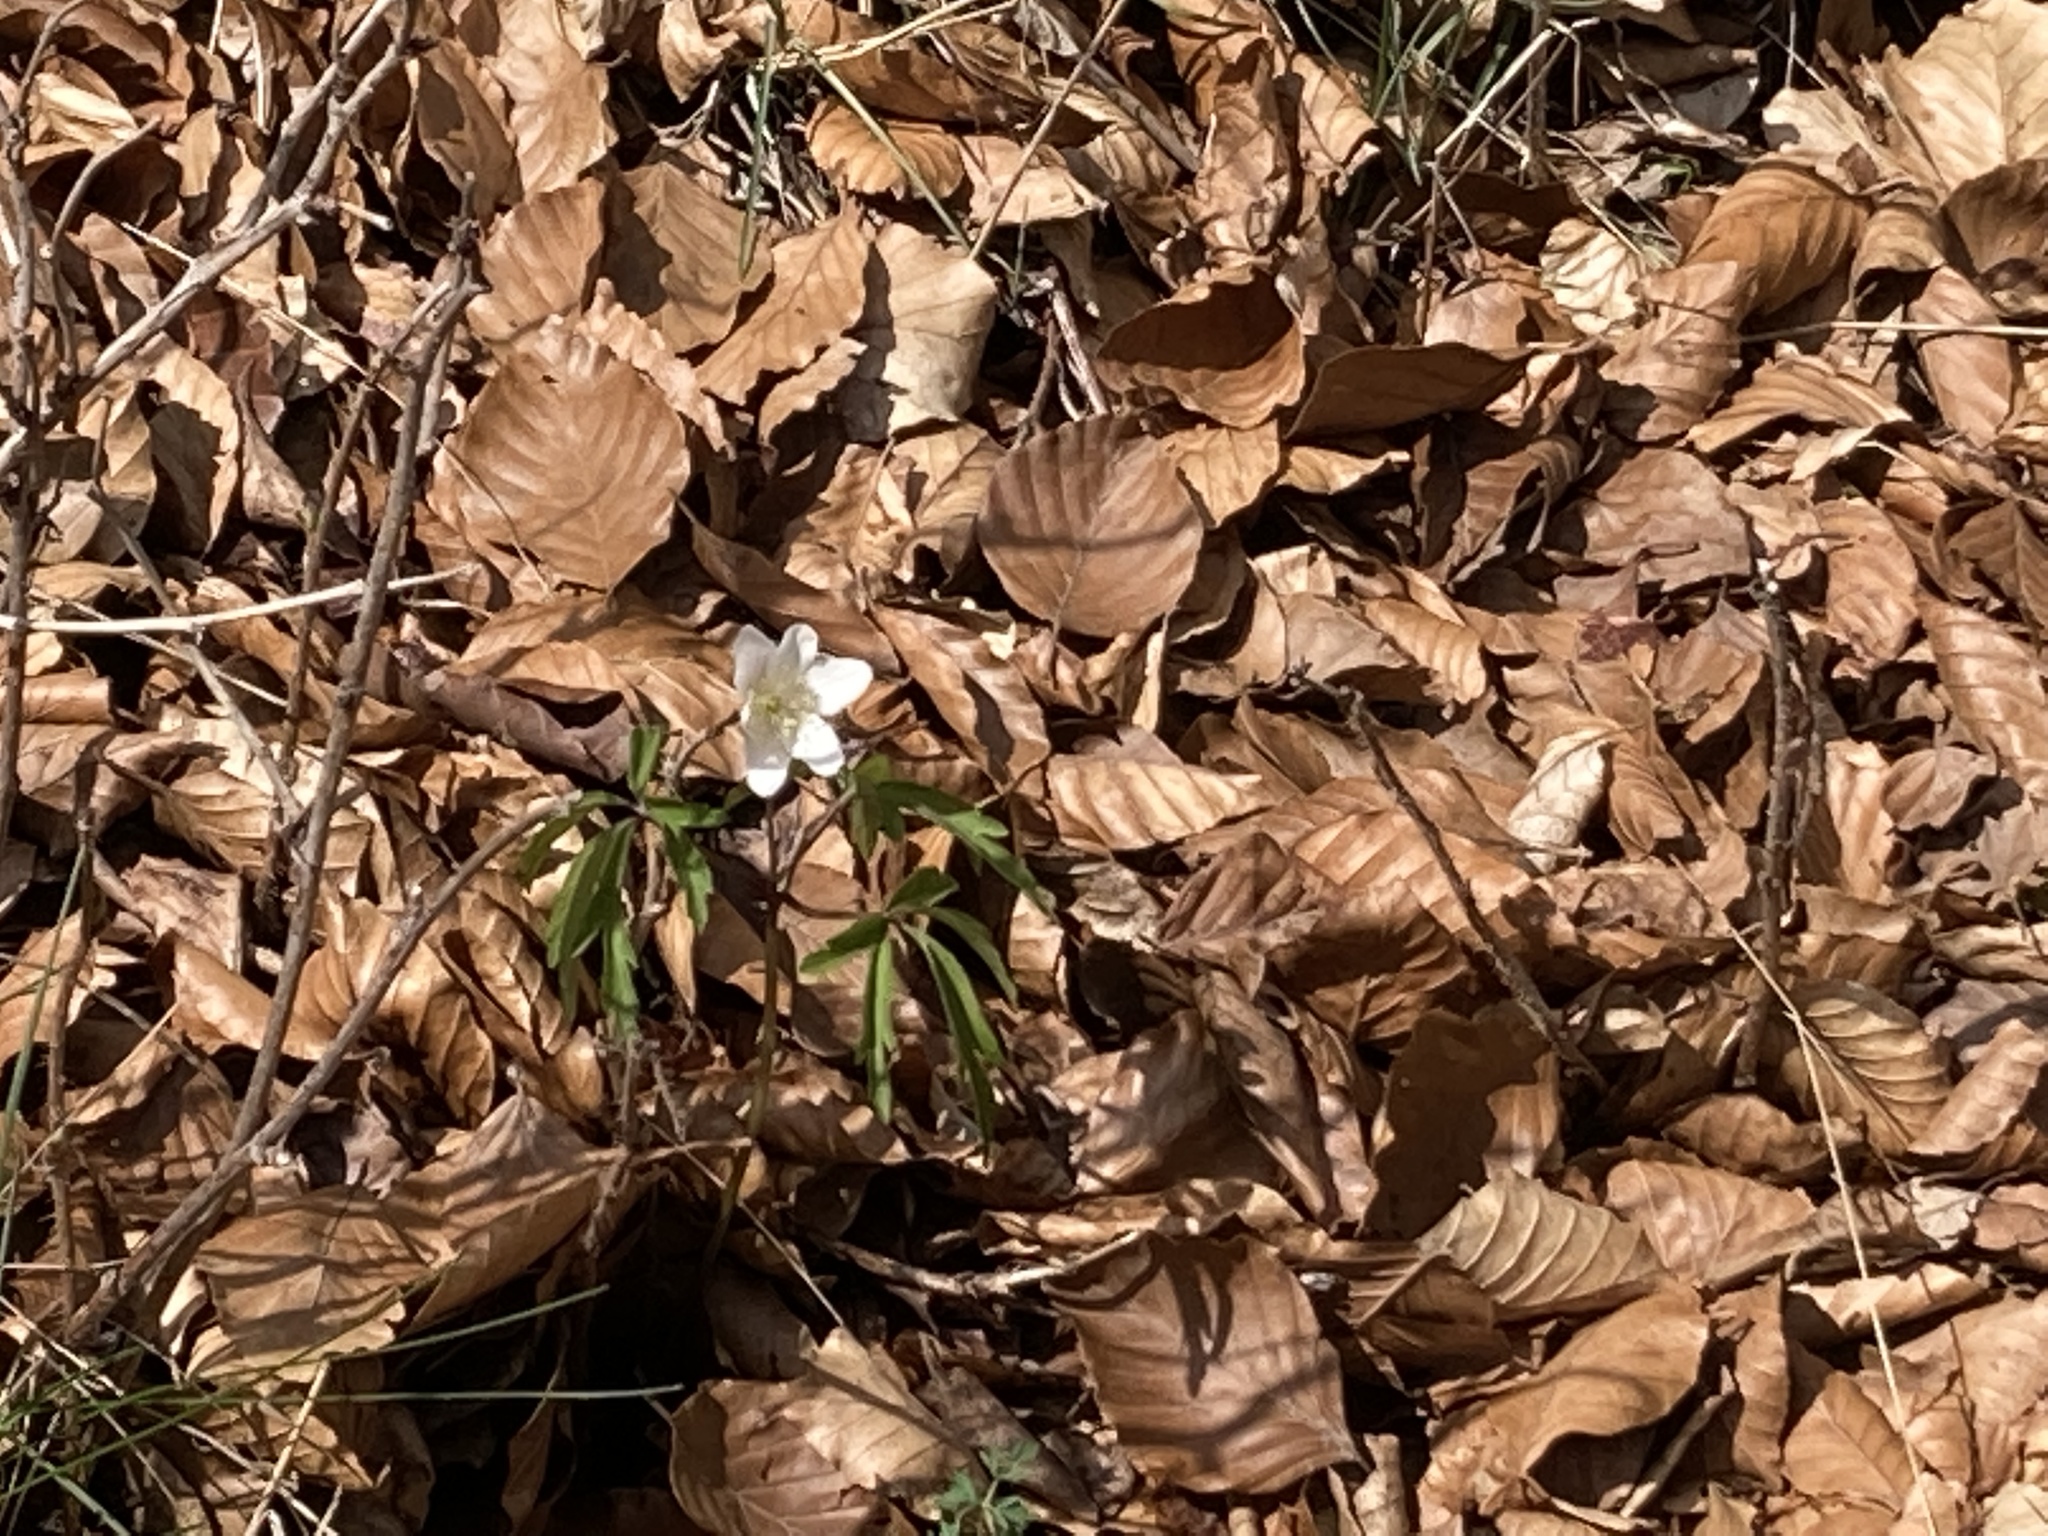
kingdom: Plantae
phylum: Tracheophyta
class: Magnoliopsida
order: Ranunculales
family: Ranunculaceae
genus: Anemone
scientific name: Anemone nemorosa
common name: Wood anemone
